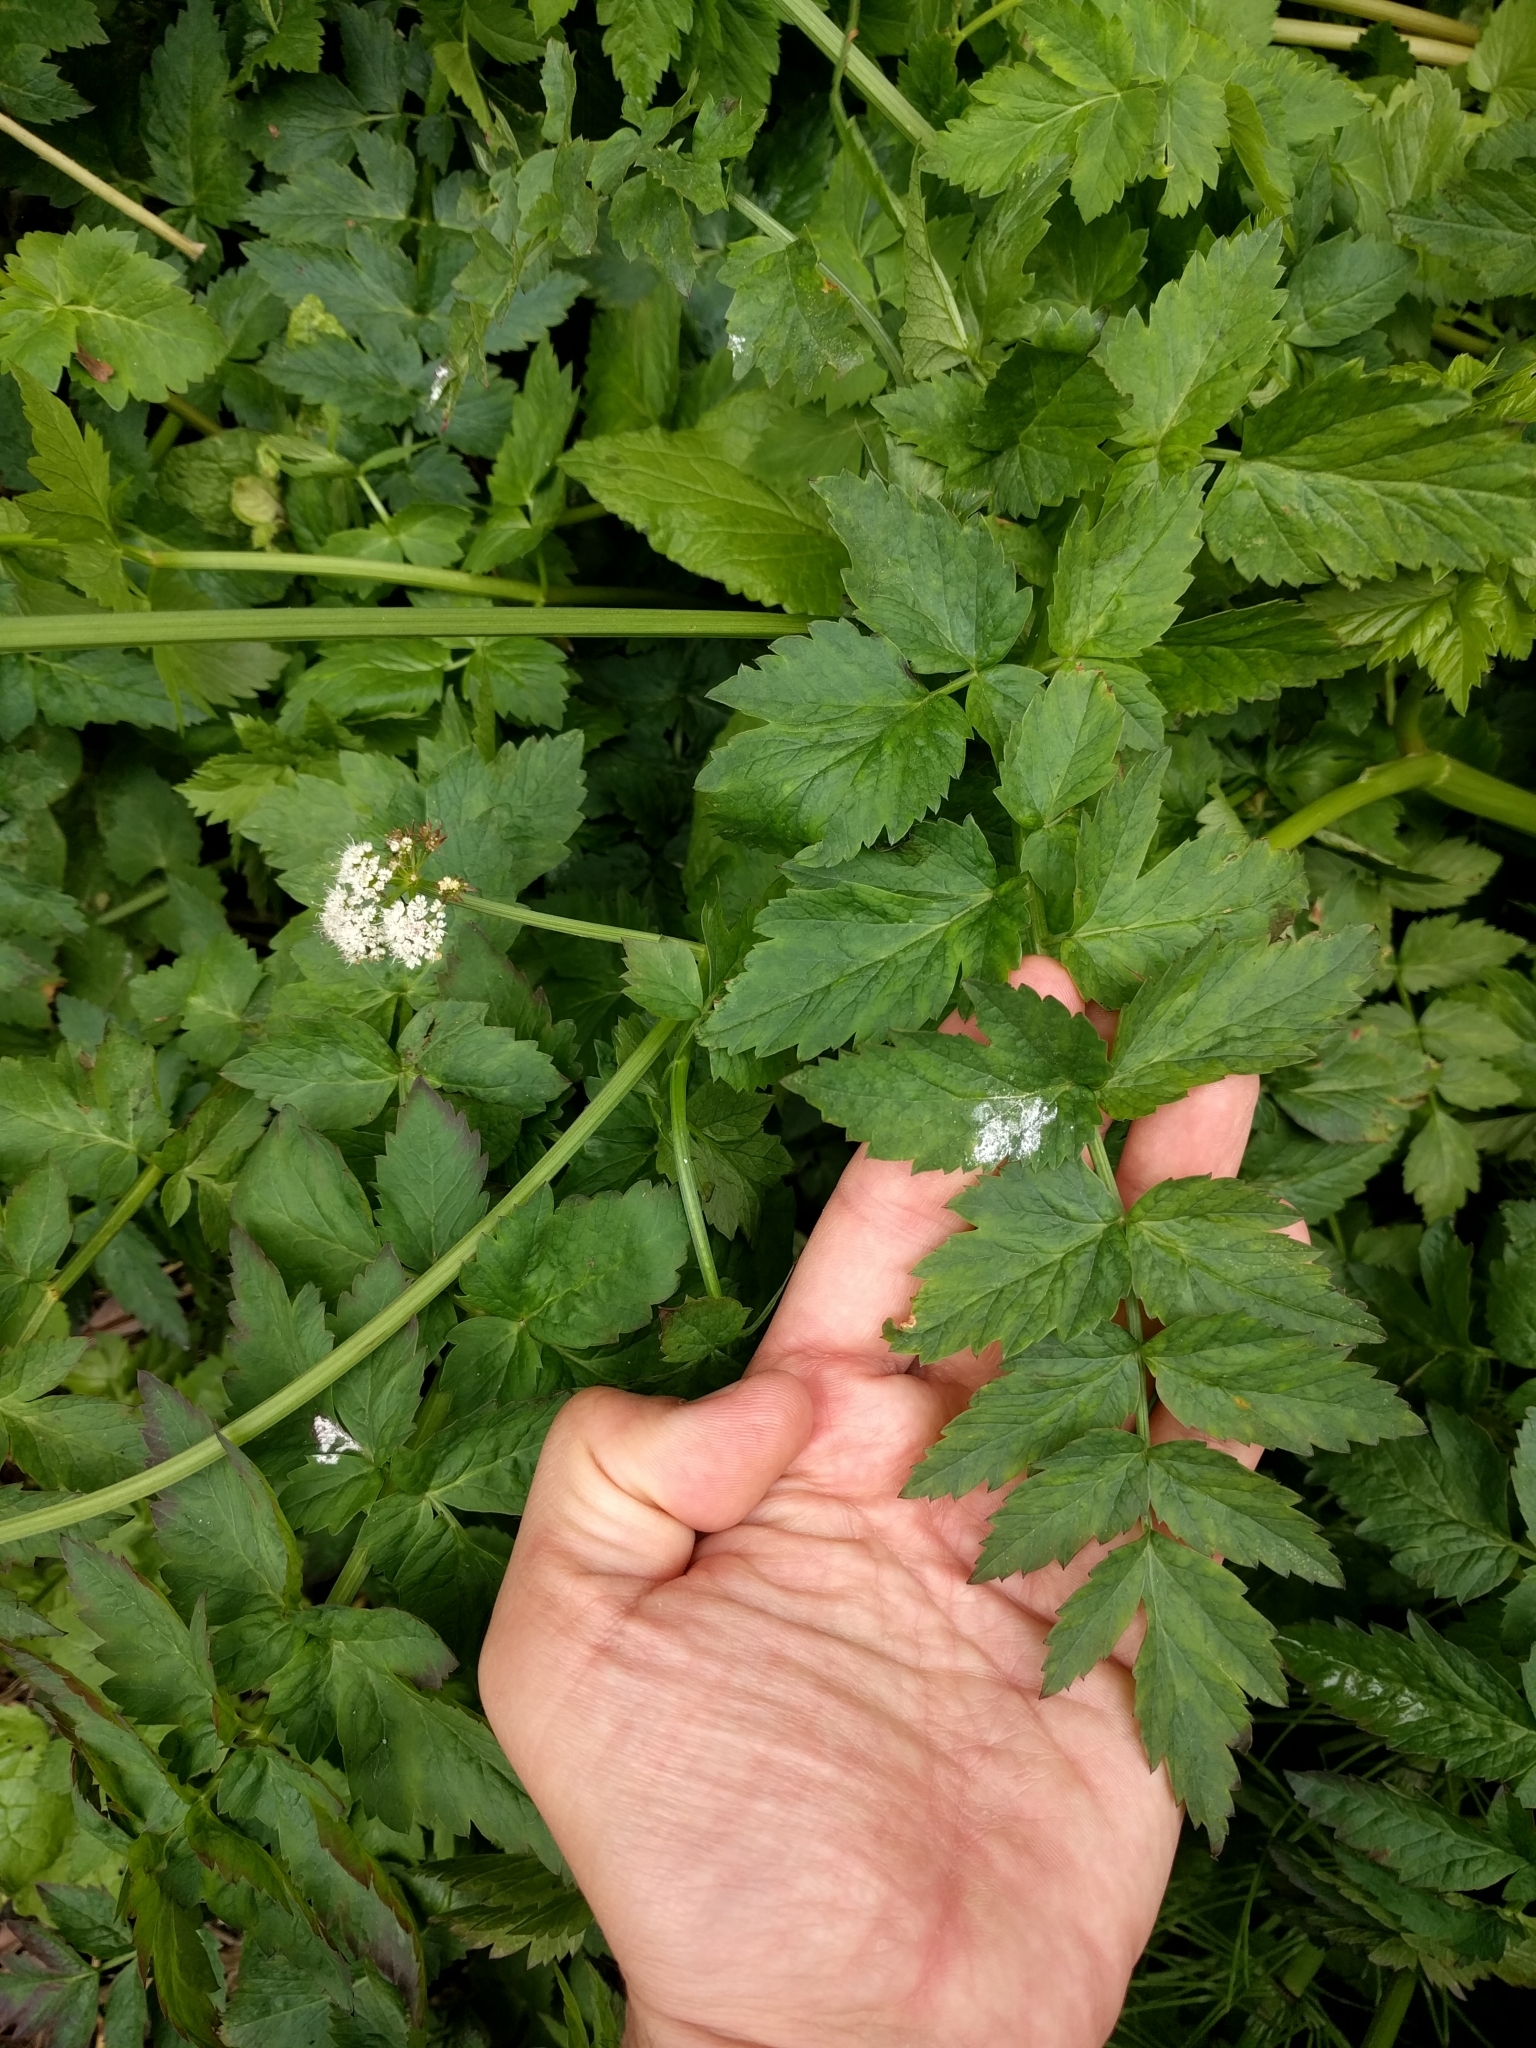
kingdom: Plantae
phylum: Tracheophyta
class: Magnoliopsida
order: Apiales
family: Apiaceae
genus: Oenanthe
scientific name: Oenanthe sarmentosa
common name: American water-parsley
